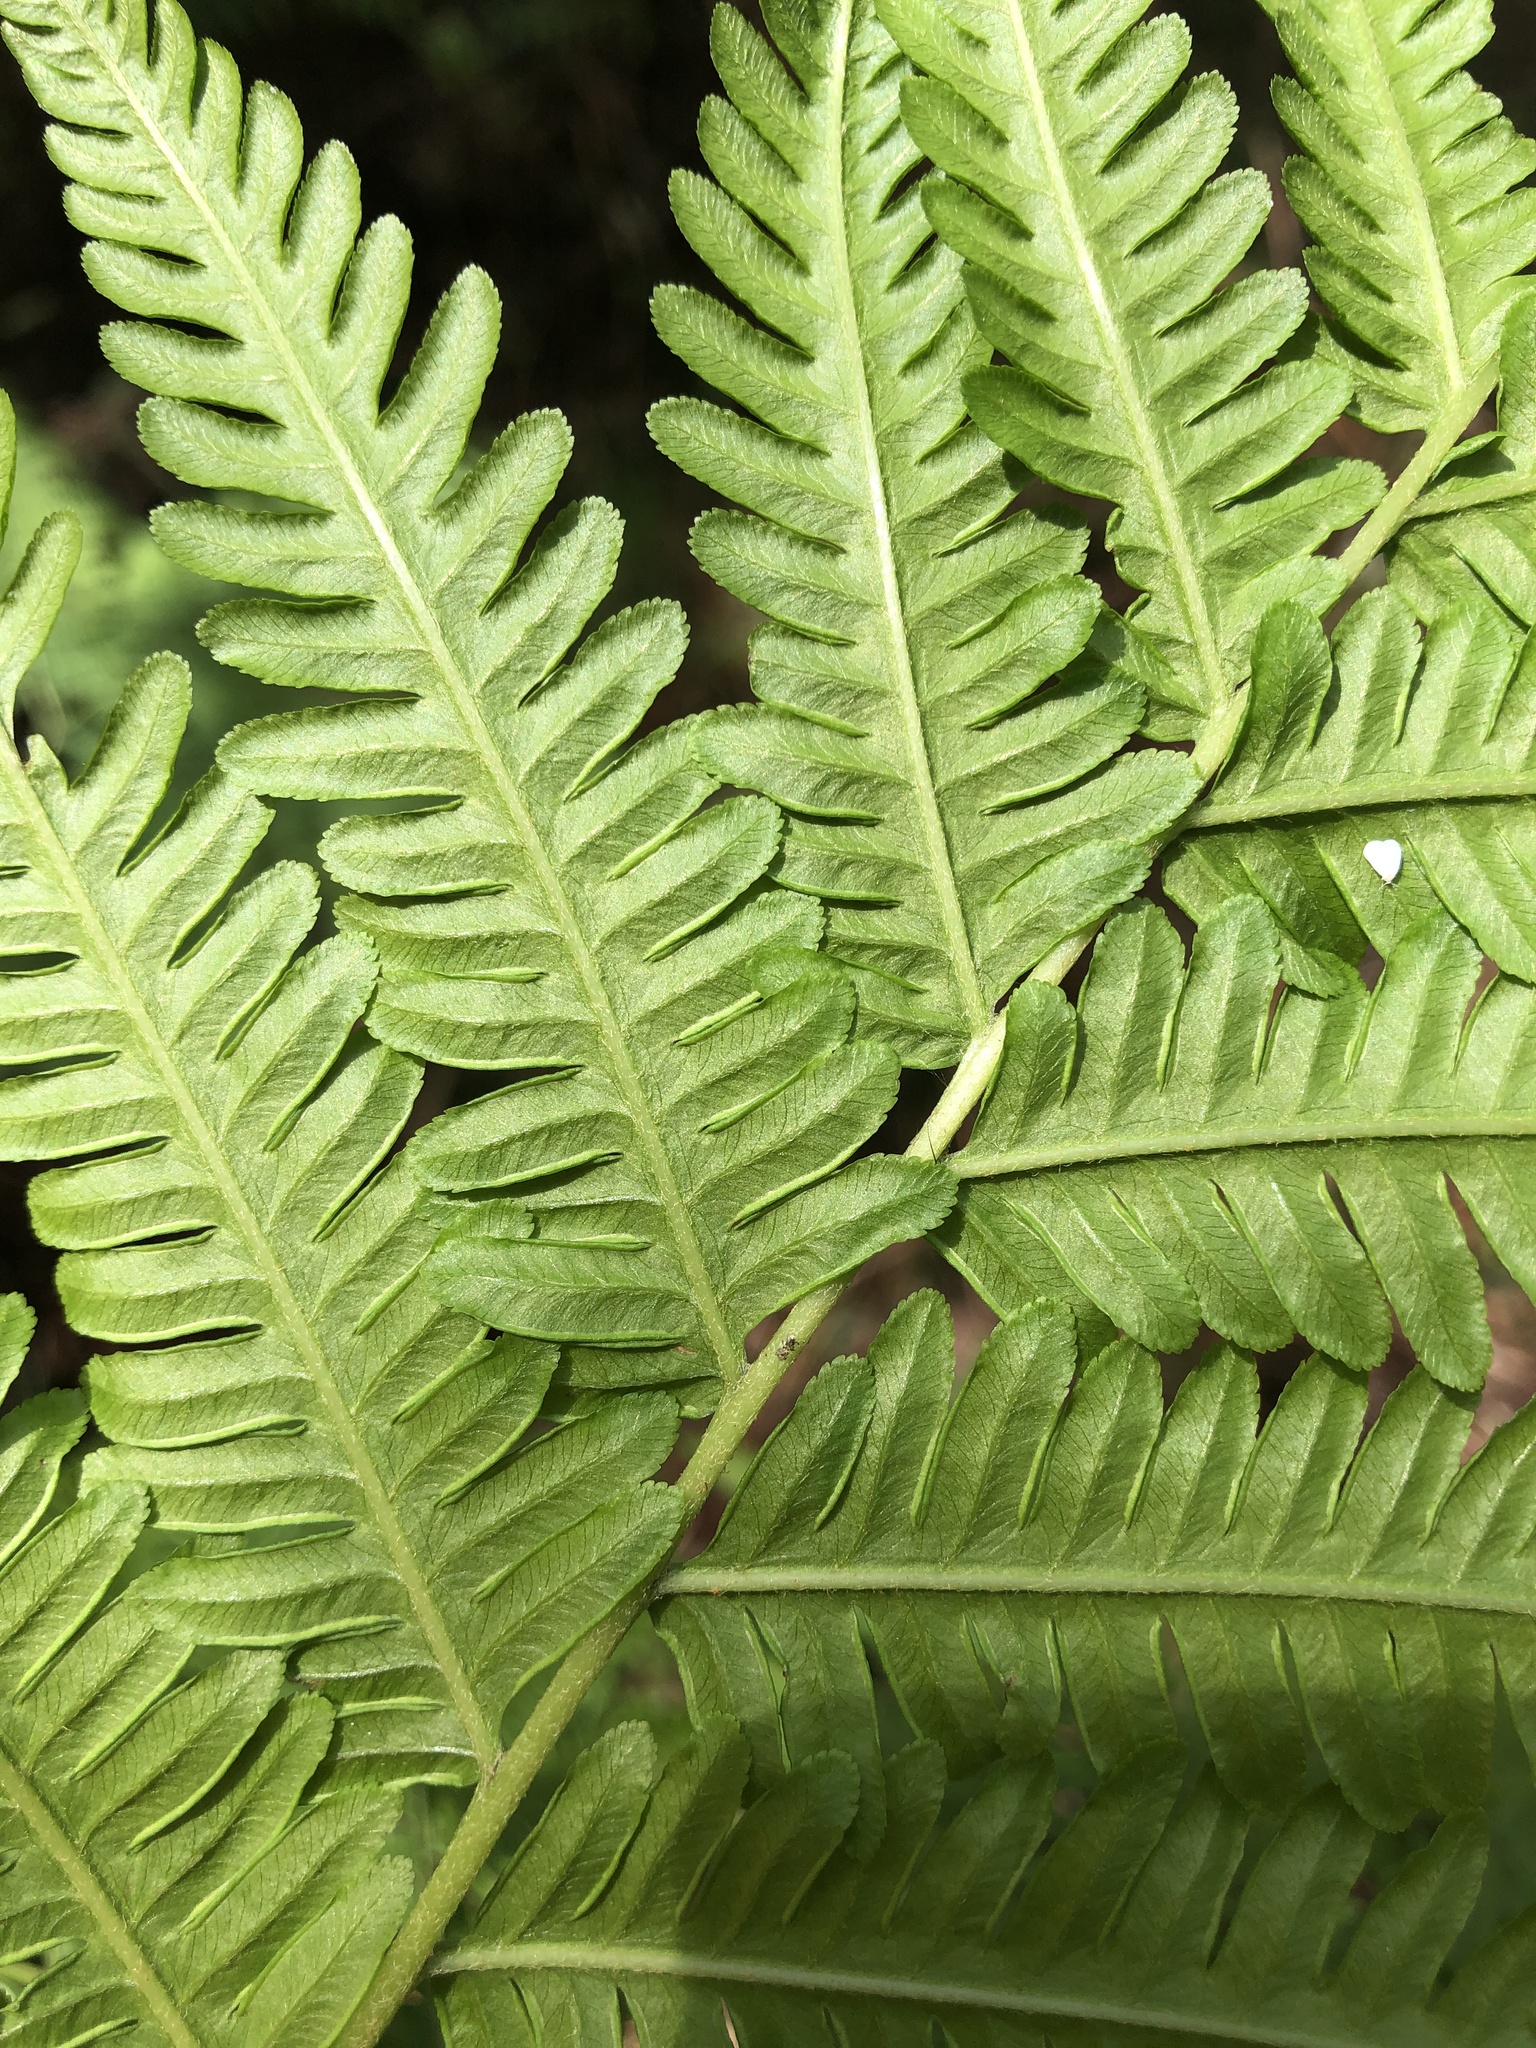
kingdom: Plantae
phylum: Tracheophyta
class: Polypodiopsida
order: Polypodiales
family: Pteridaceae
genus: Pteris
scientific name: Pteris wallichiana
